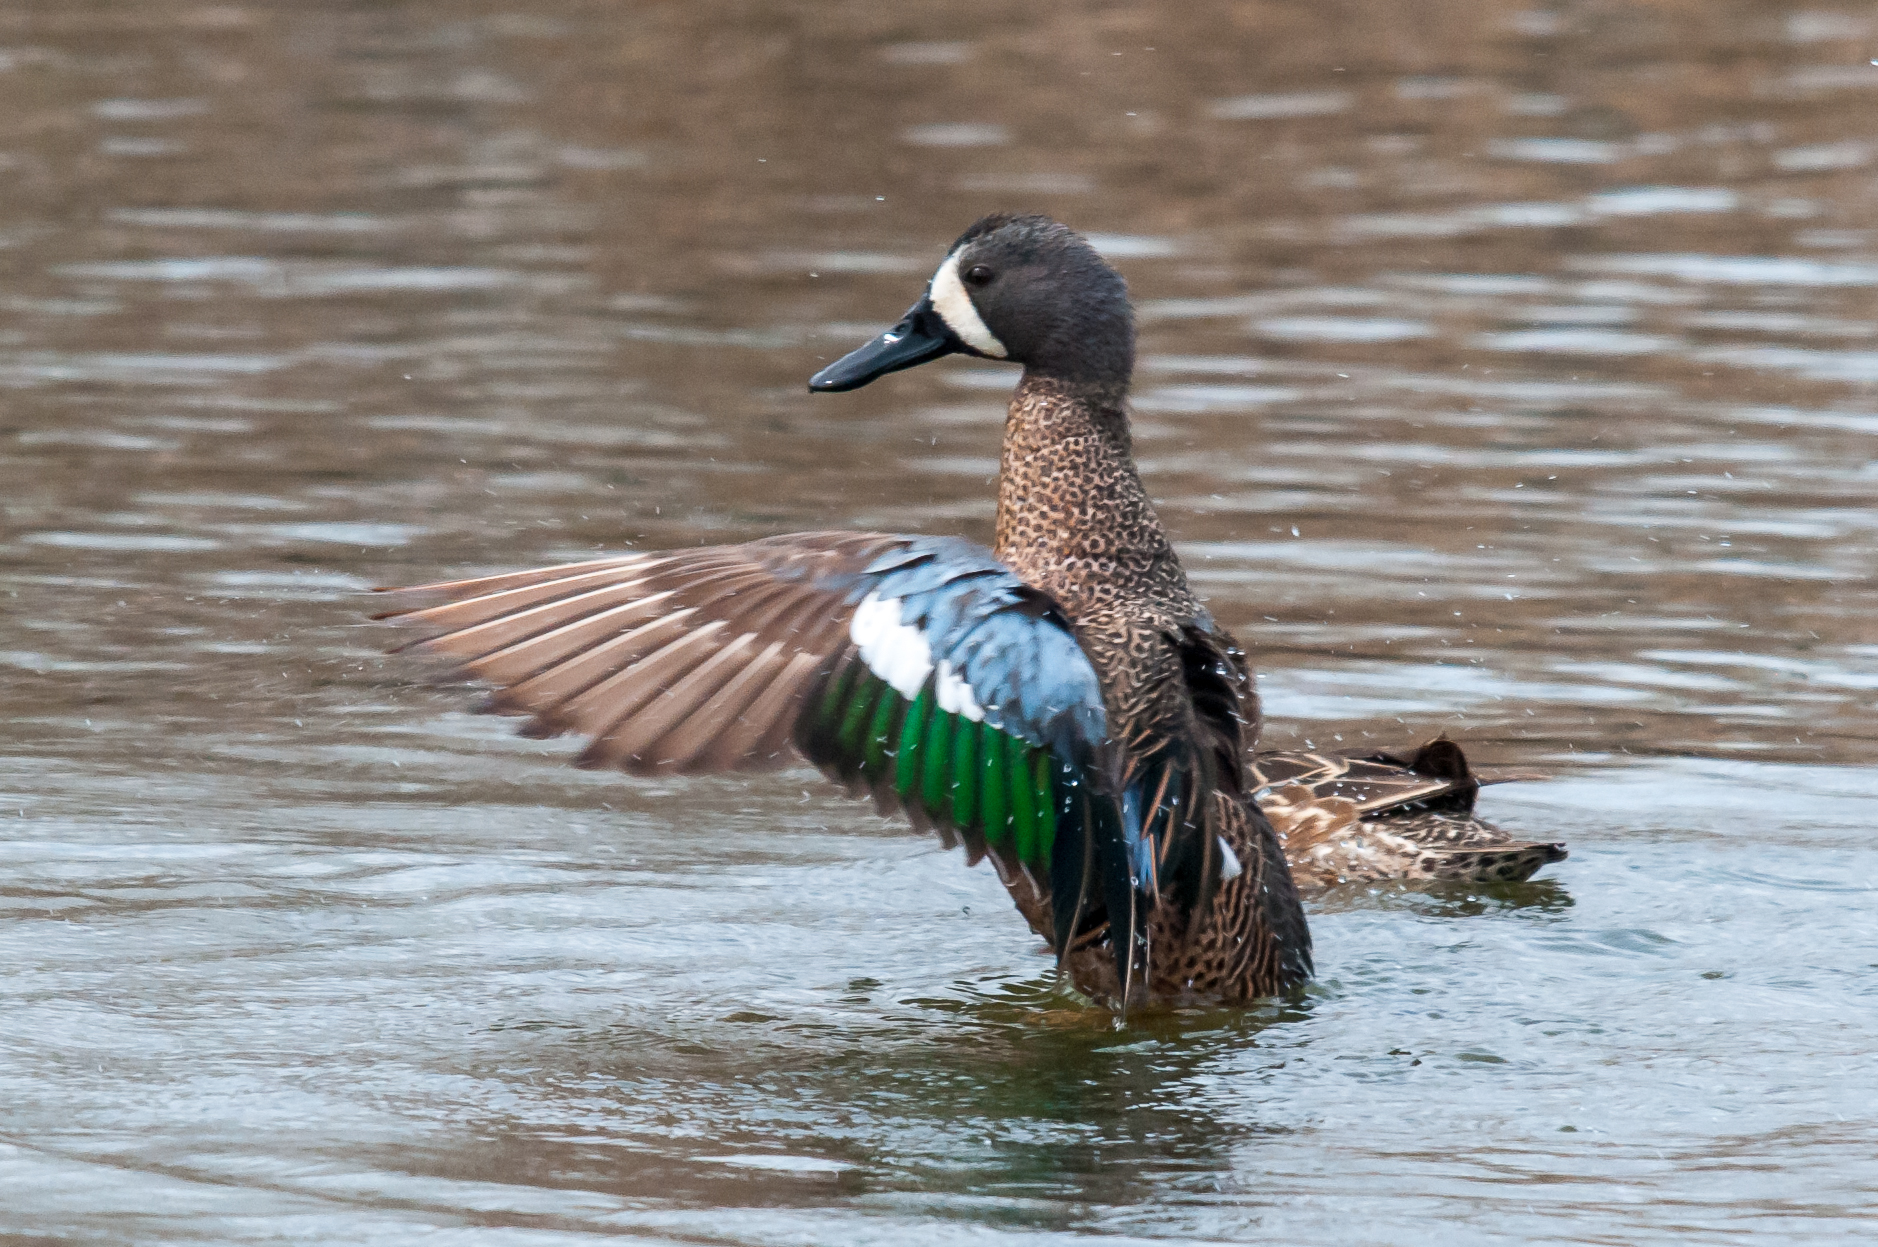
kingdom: Animalia
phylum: Chordata
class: Aves
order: Anseriformes
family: Anatidae
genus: Spatula
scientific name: Spatula discors
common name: Blue-winged teal
